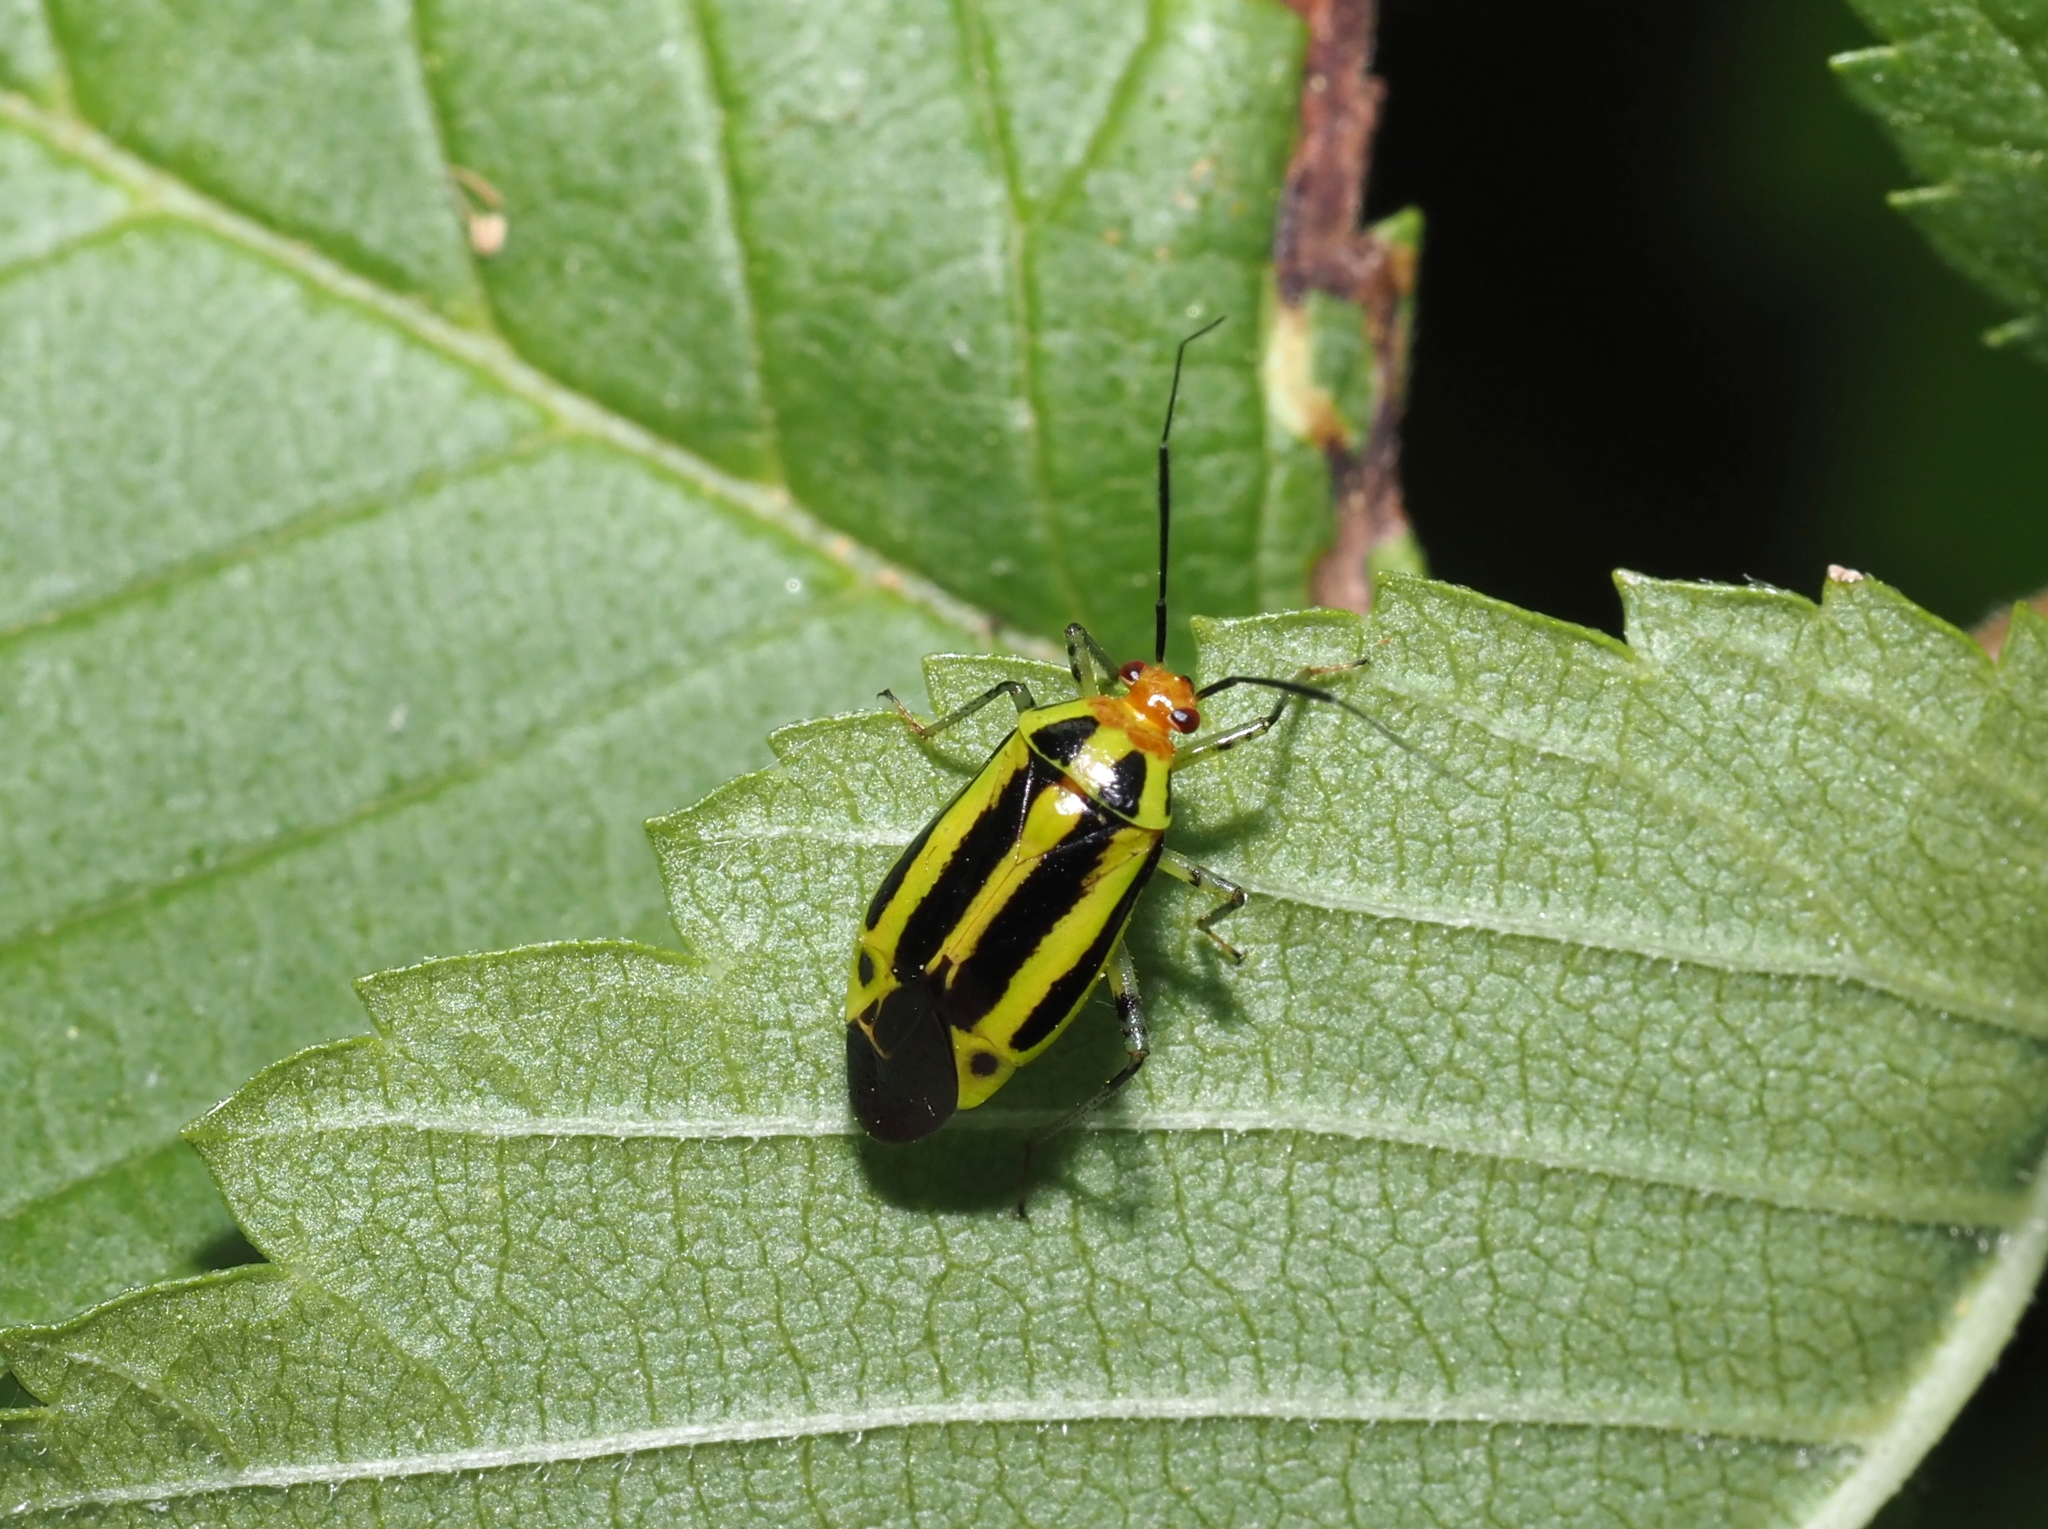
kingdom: Animalia
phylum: Arthropoda
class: Insecta
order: Hemiptera
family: Miridae
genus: Poecilocapsus
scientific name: Poecilocapsus lineatus
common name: Four-lined plant bug
